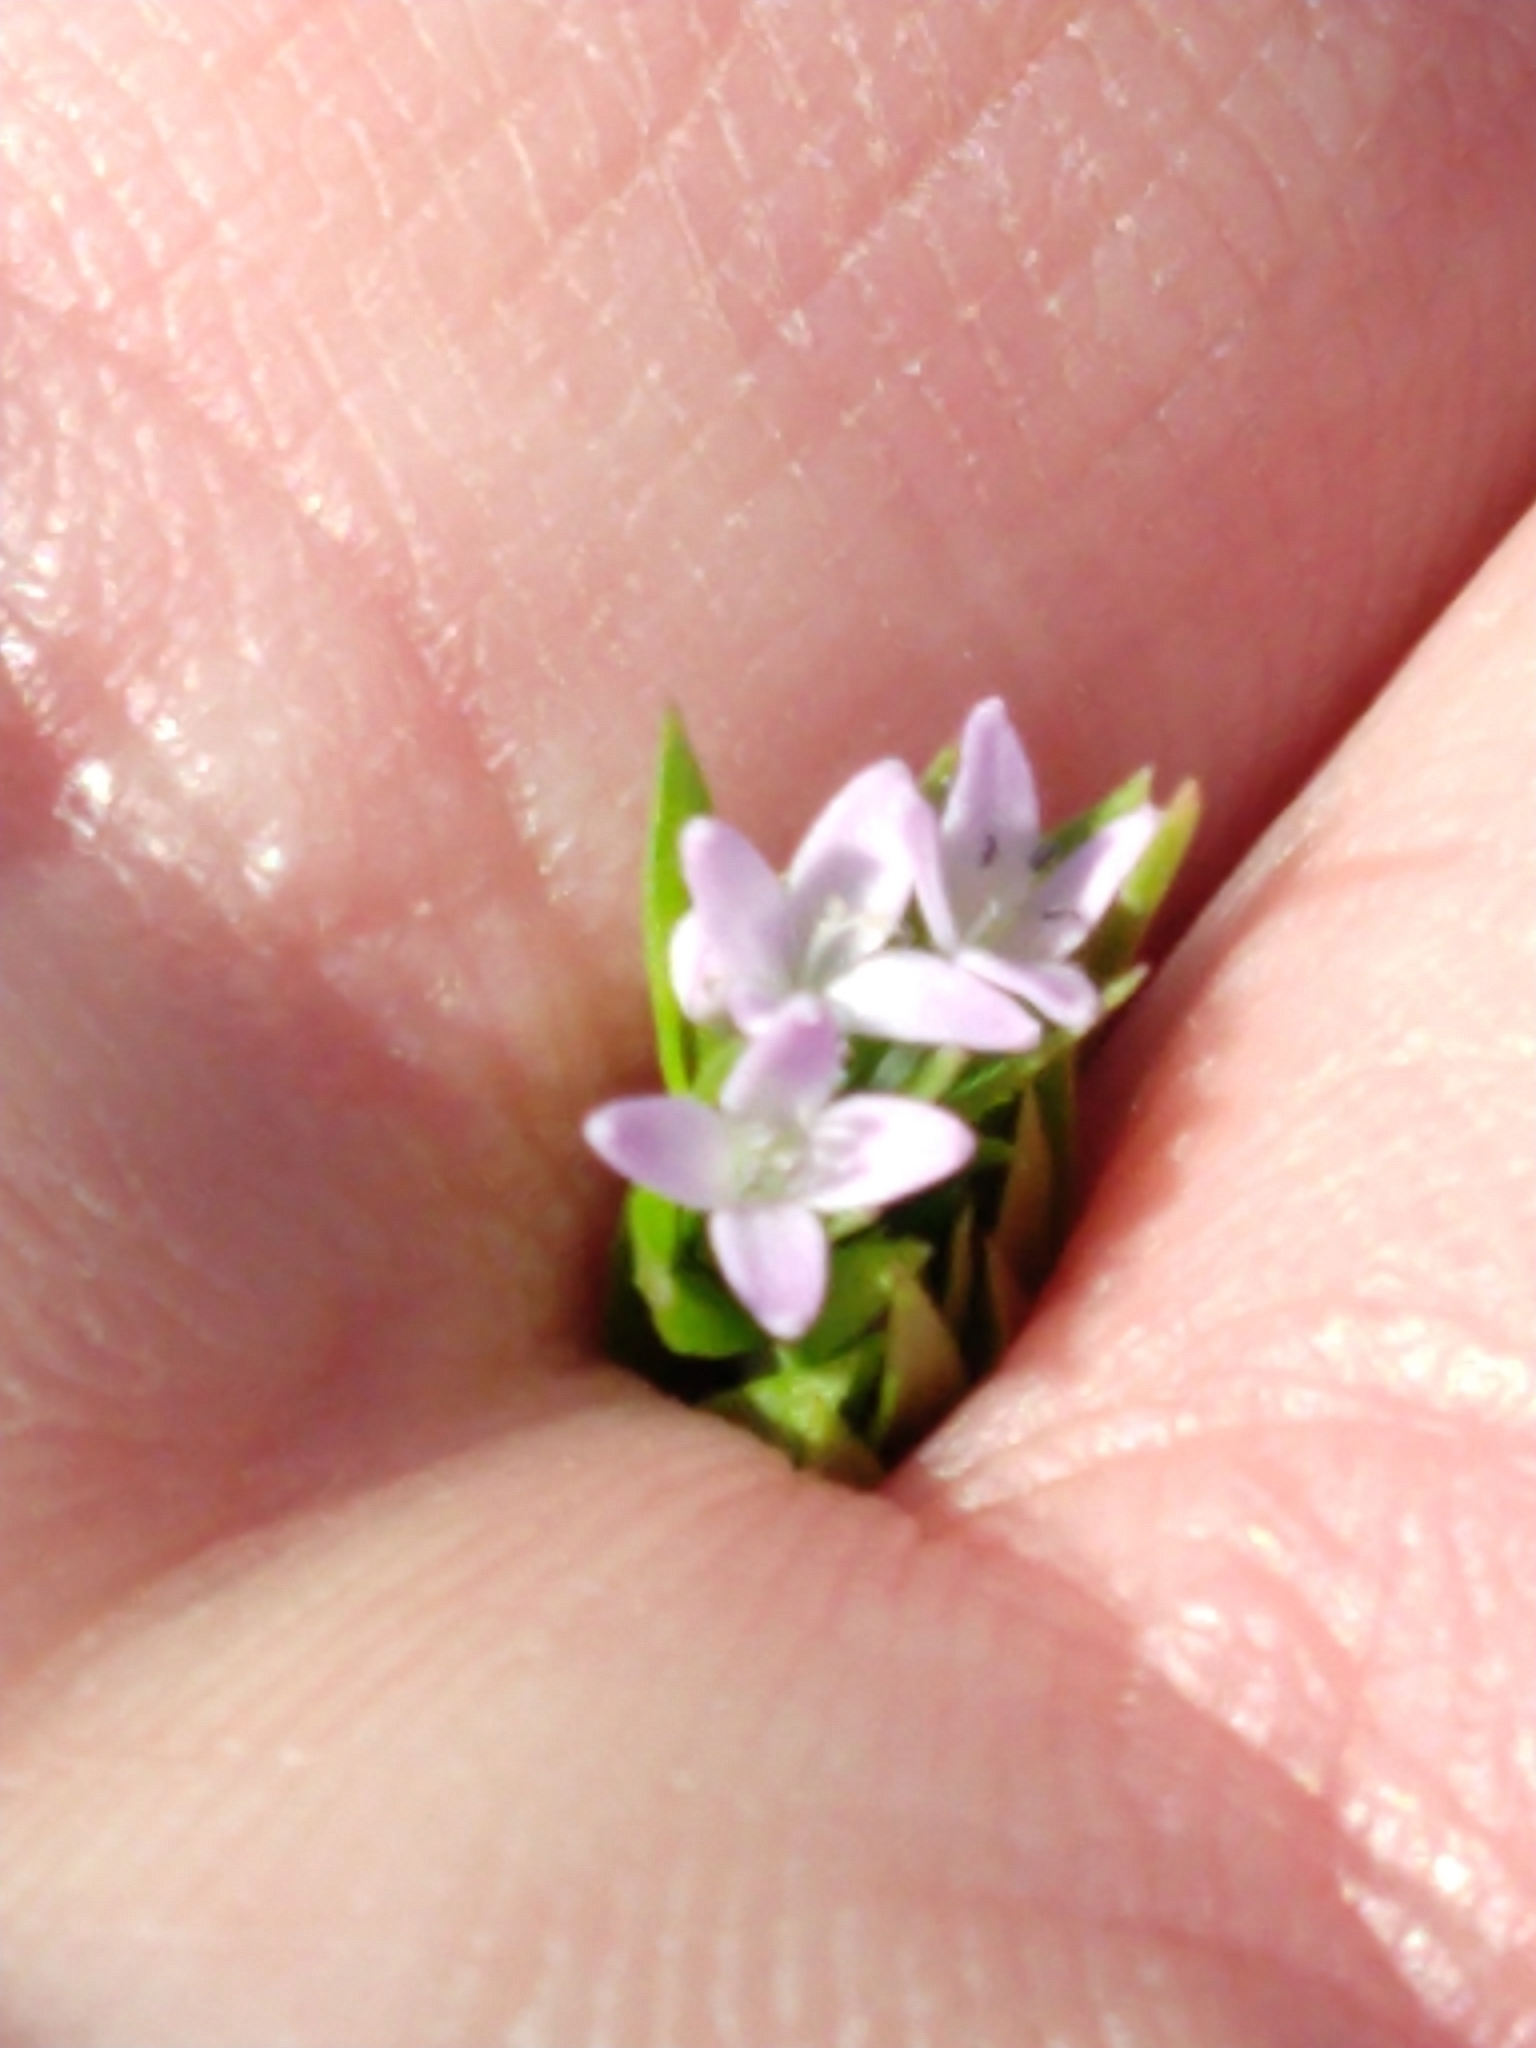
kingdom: Plantae
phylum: Tracheophyta
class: Magnoliopsida
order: Gentianales
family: Rubiaceae
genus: Sherardia
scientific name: Sherardia arvensis
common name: Field madder
